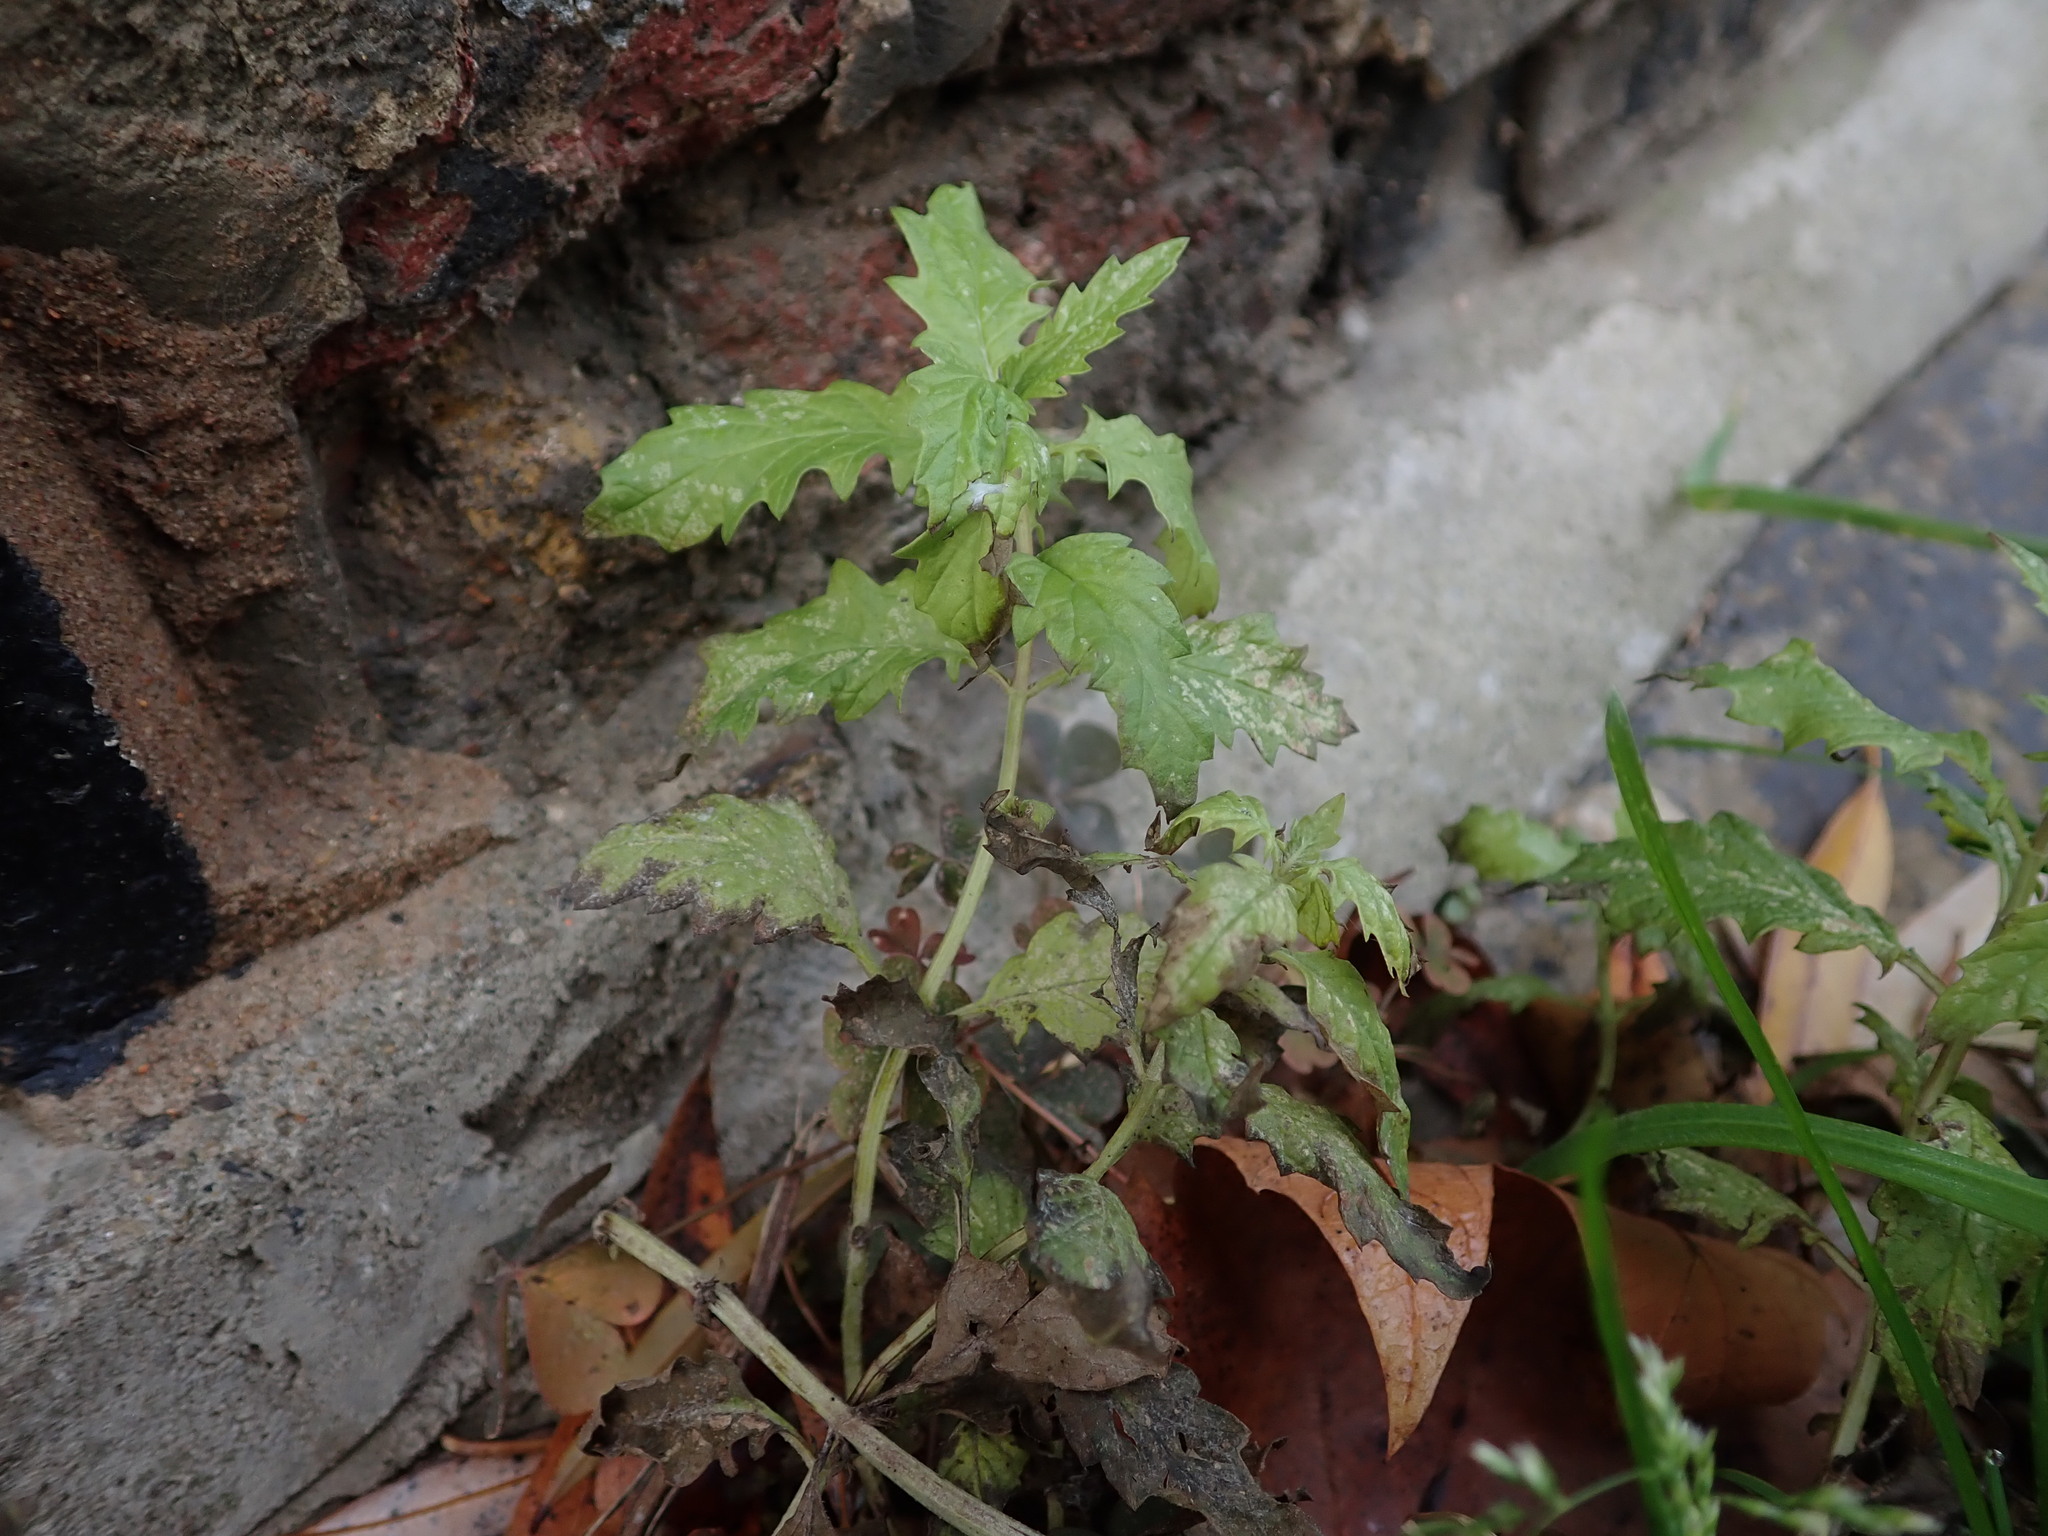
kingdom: Plantae
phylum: Tracheophyta
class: Magnoliopsida
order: Lamiales
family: Lamiaceae
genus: Lycopus
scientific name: Lycopus europaeus
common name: European bugleweed
